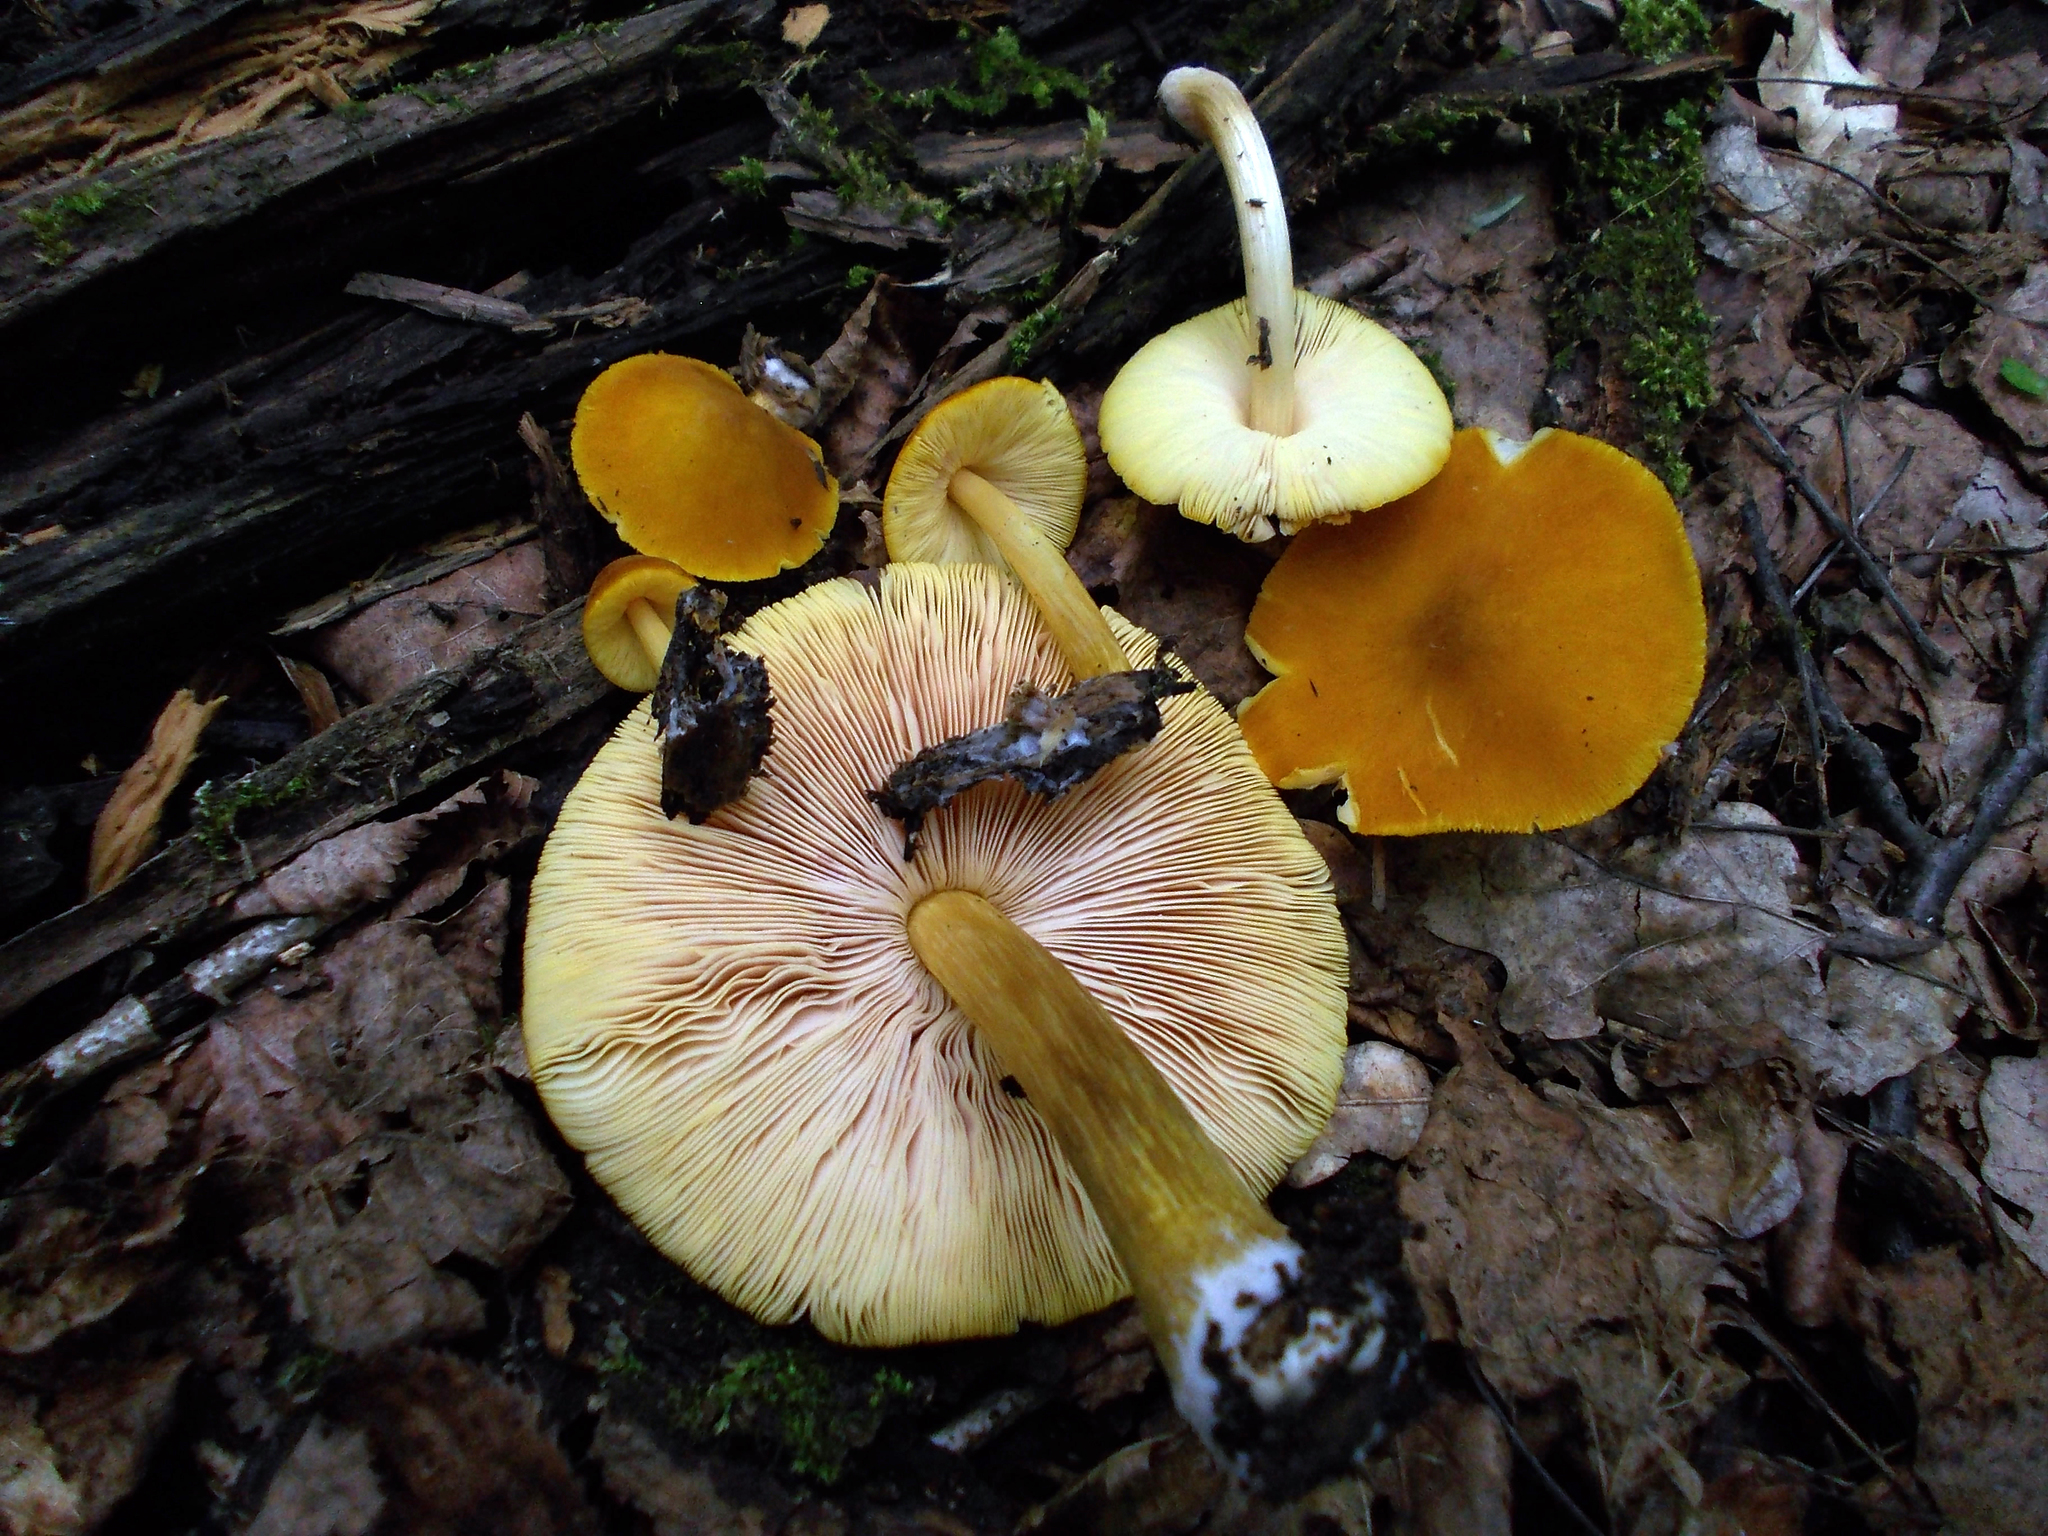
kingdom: Fungi
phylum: Basidiomycota
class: Agaricomycetes
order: Agaricales
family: Pluteaceae
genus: Pluteus
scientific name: Pluteus leoninus
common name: Lion shield
